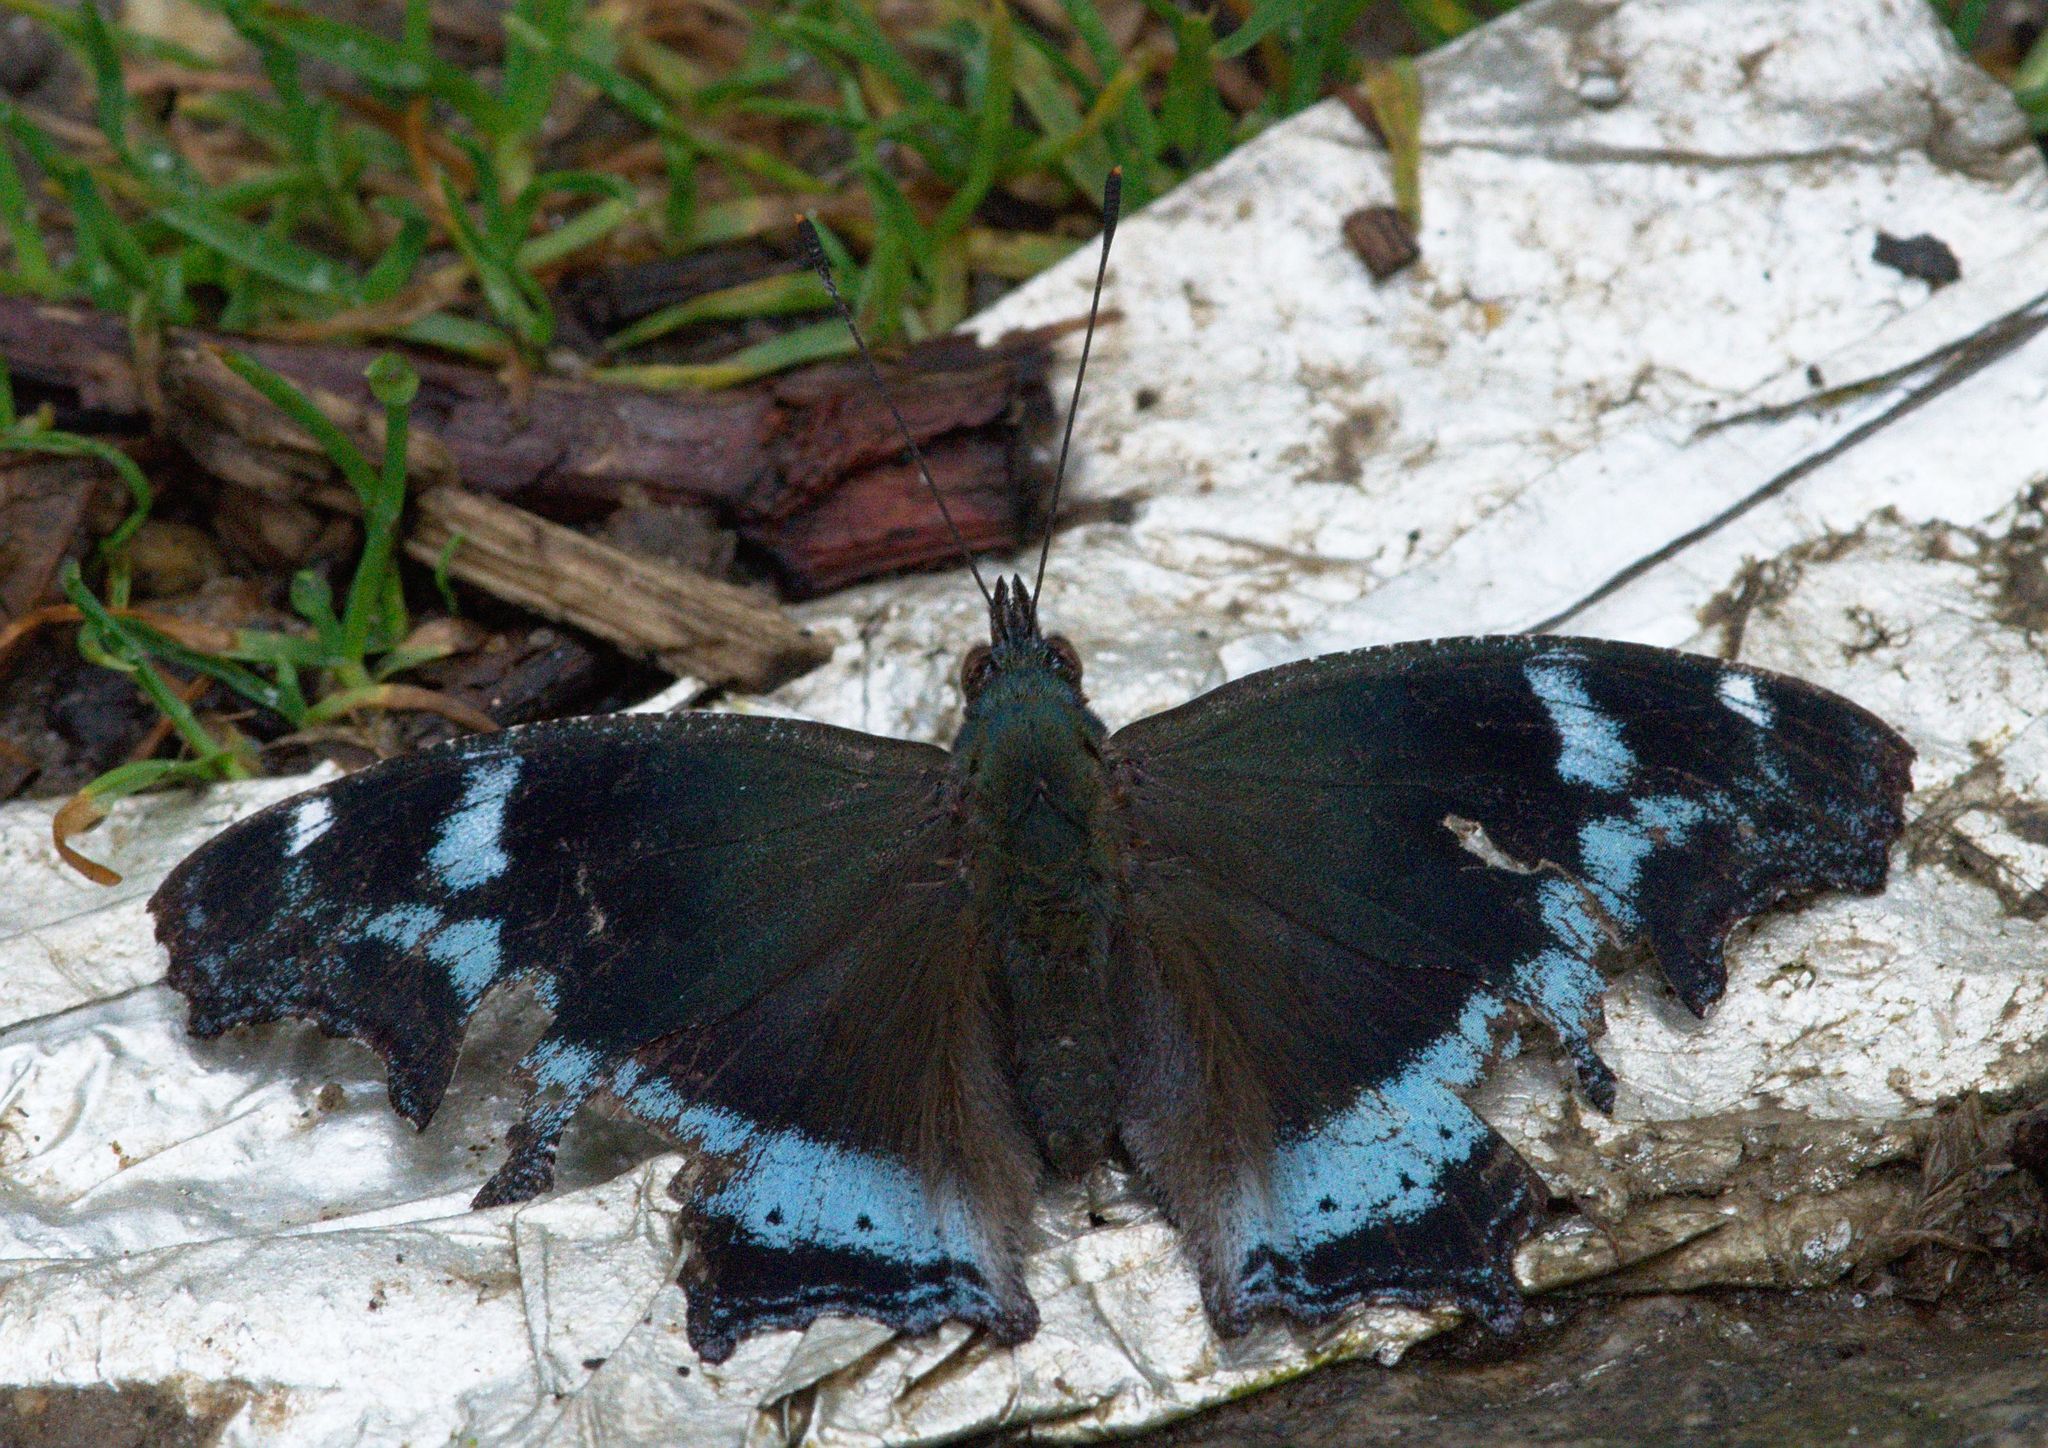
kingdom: Animalia
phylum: Arthropoda
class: Insecta
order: Lepidoptera
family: Nymphalidae
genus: Vanessa
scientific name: Vanessa Kaniska canace
